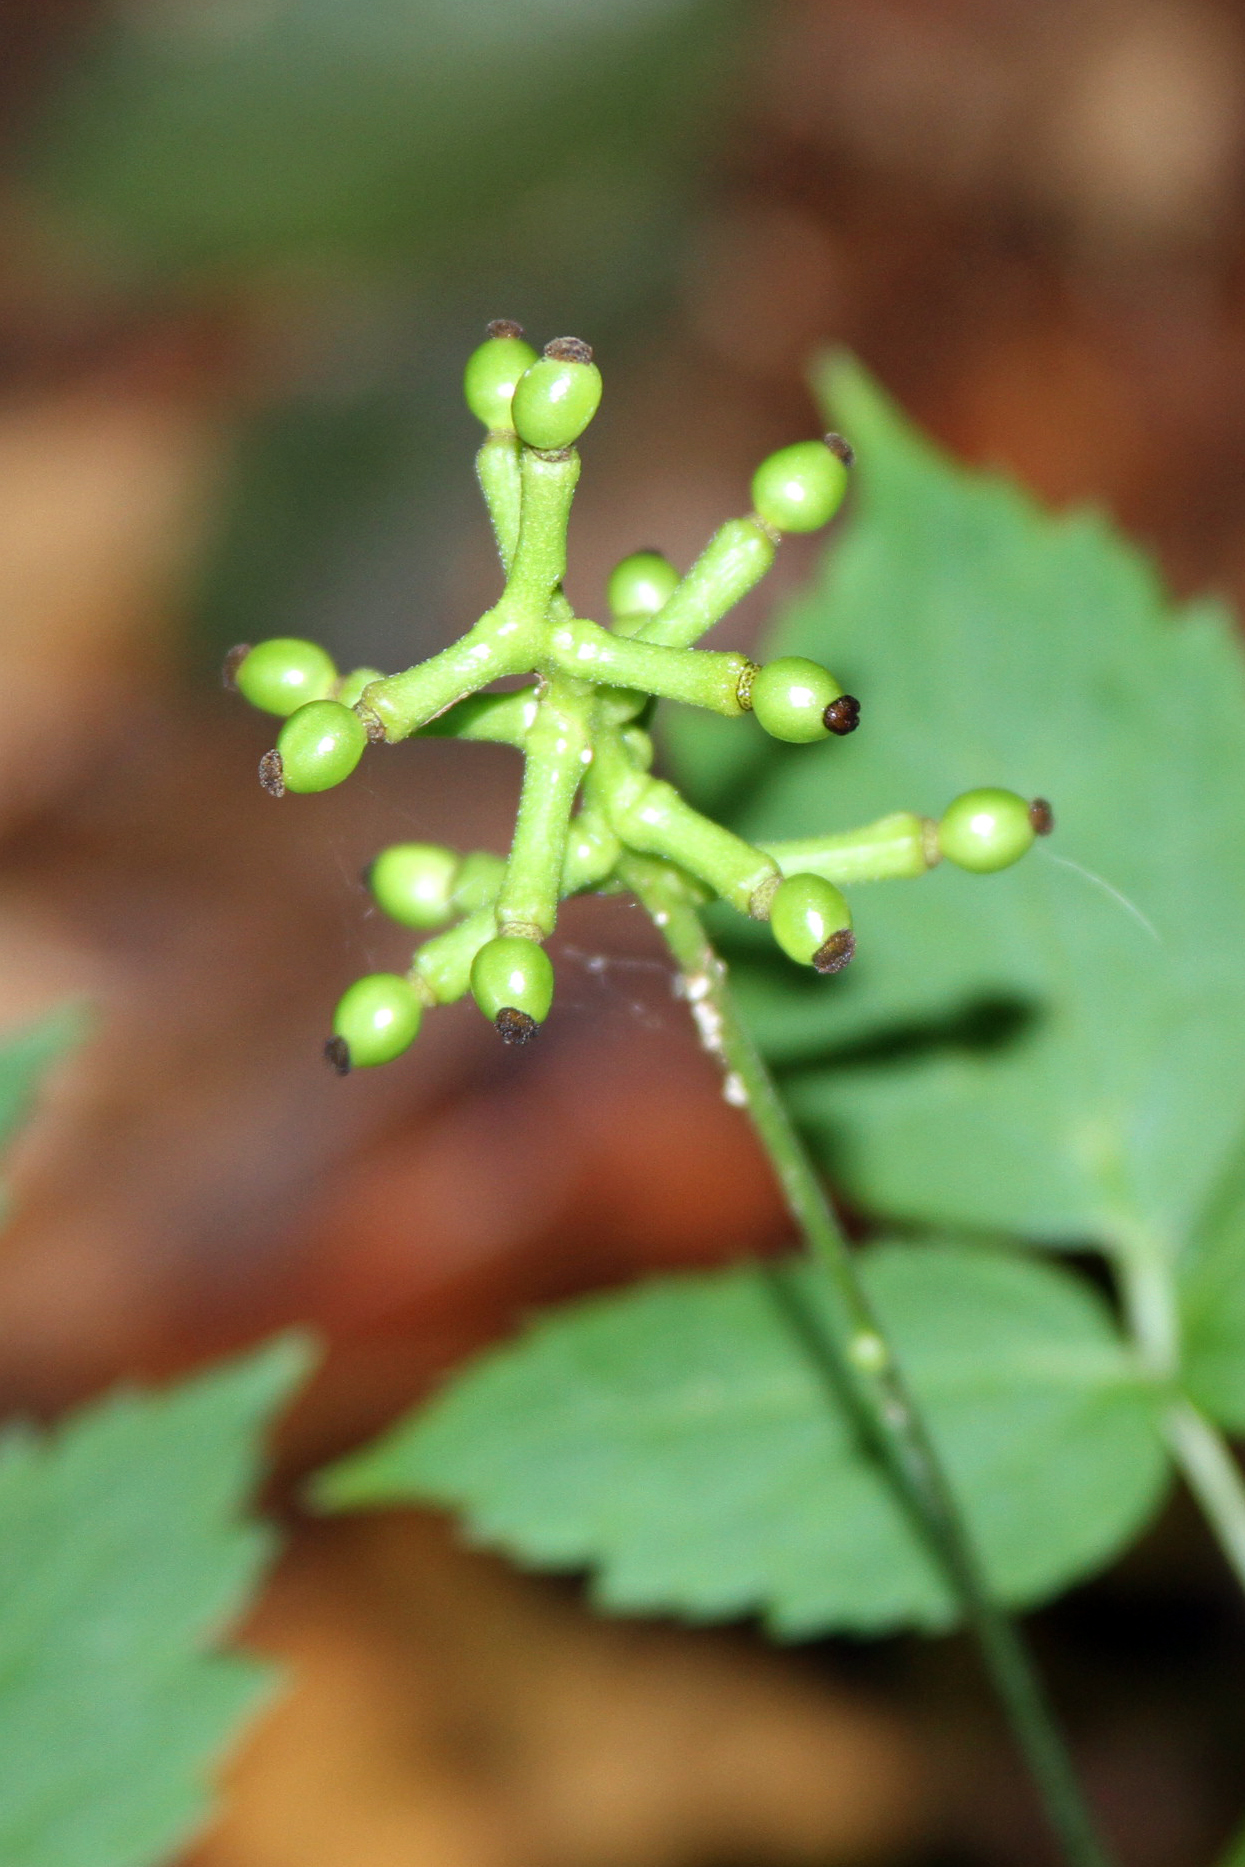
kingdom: Plantae
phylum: Tracheophyta
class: Magnoliopsida
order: Ranunculales
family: Ranunculaceae
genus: Actaea
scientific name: Actaea pachypoda
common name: Doll's-eyes
